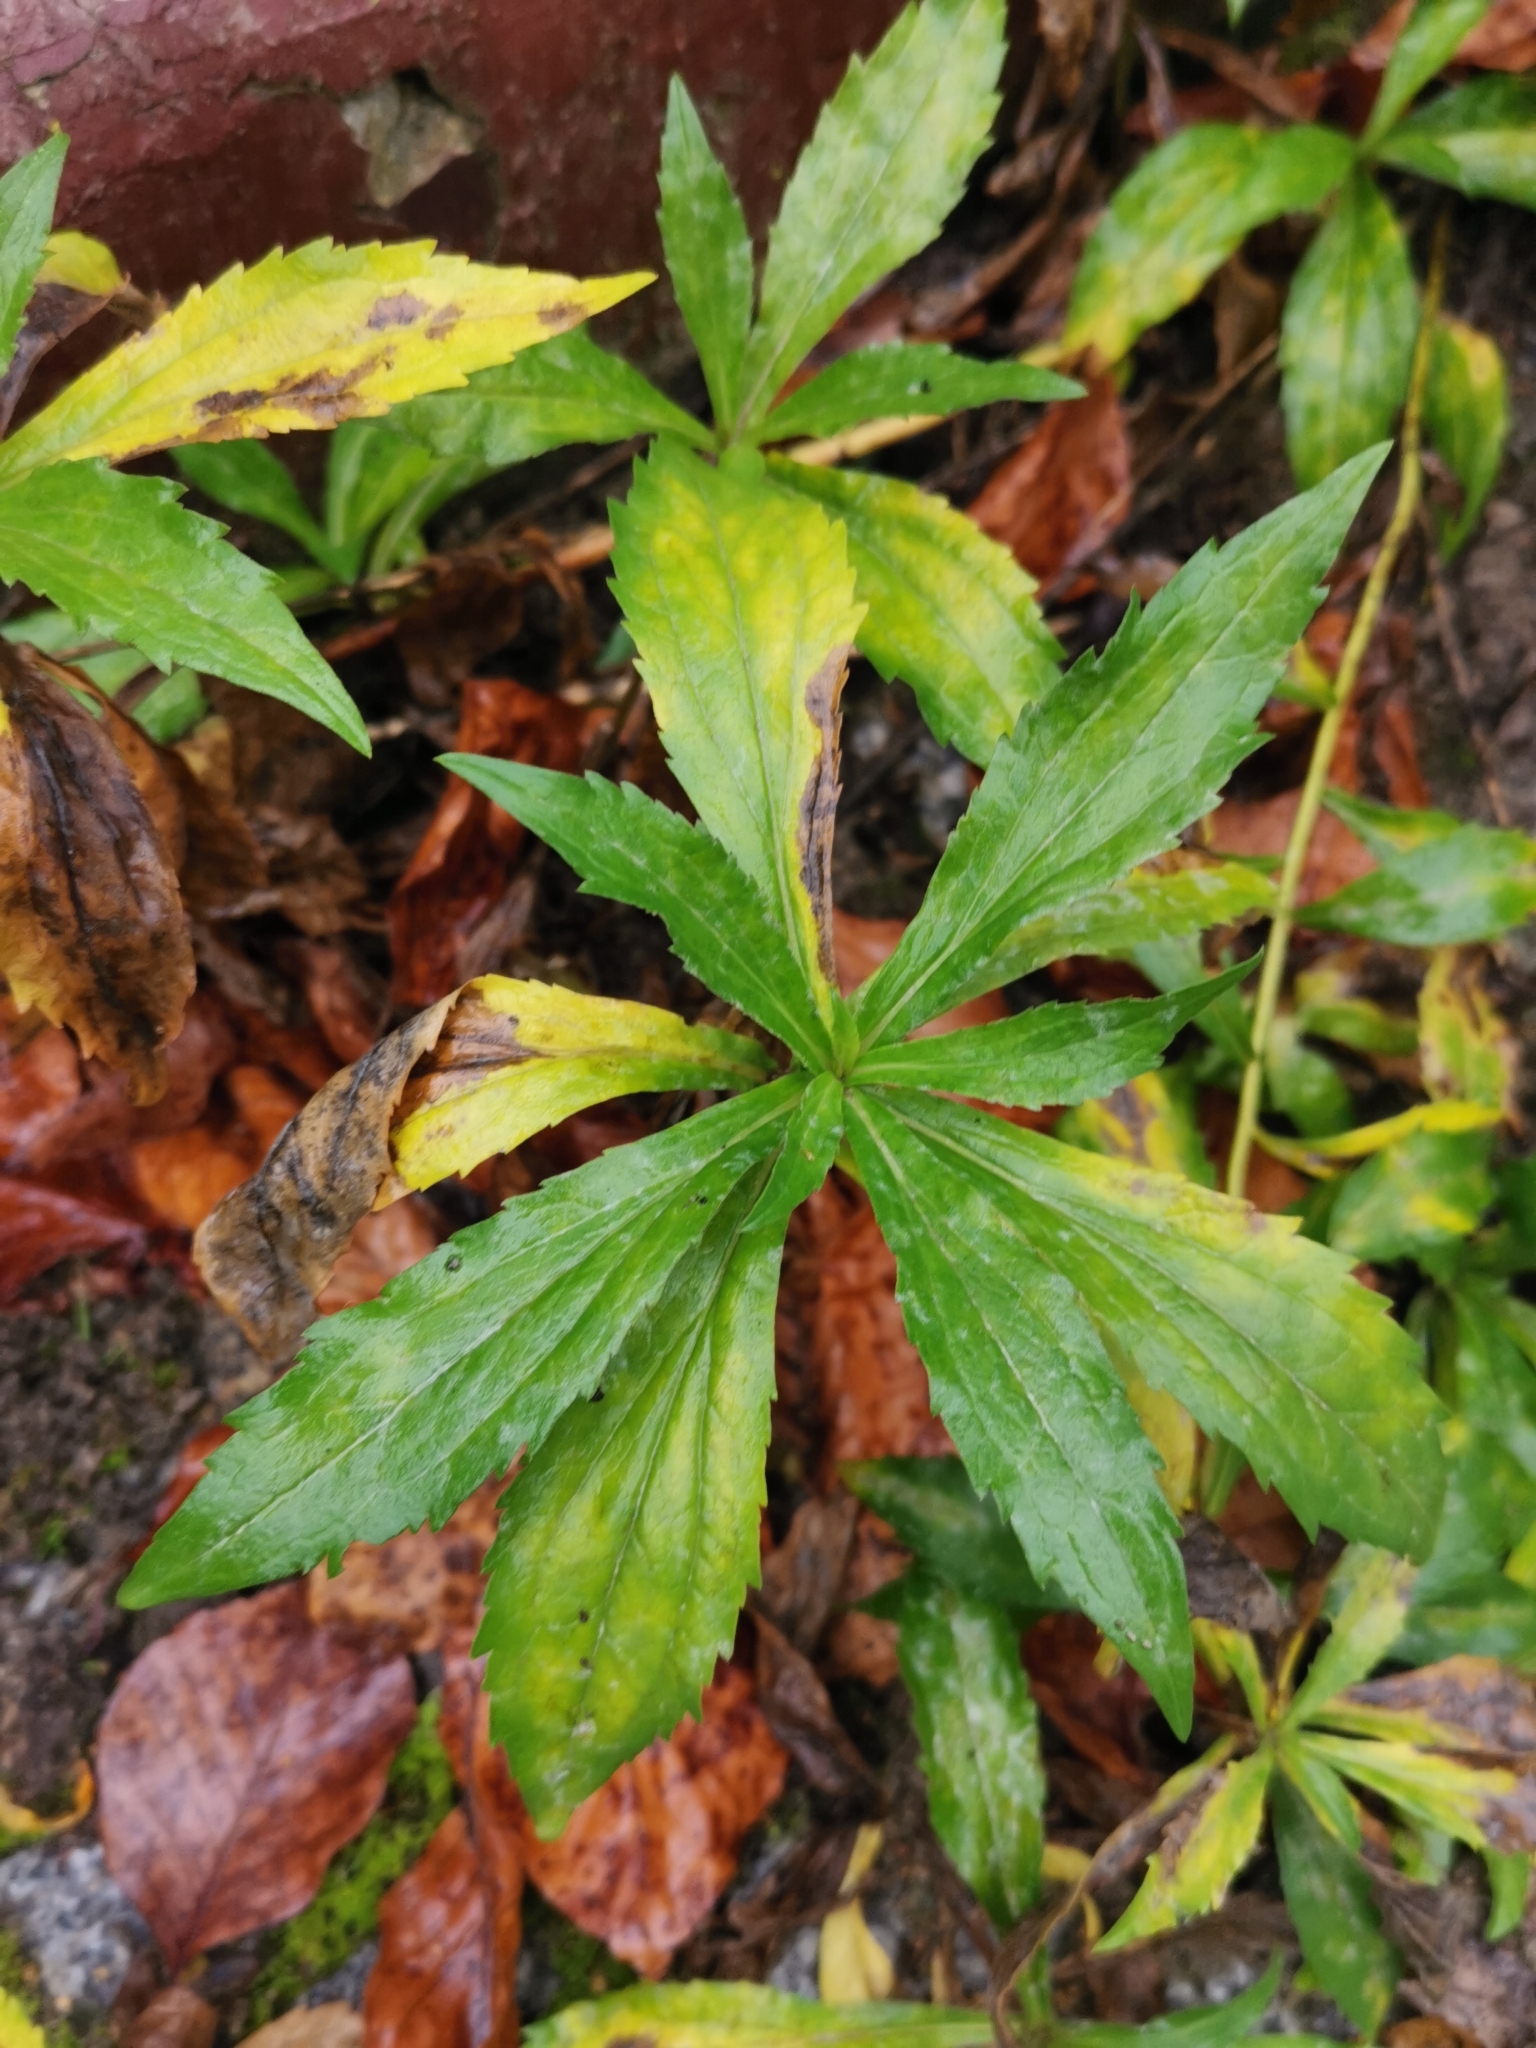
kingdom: Plantae
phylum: Tracheophyta
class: Magnoliopsida
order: Asterales
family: Asteraceae
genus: Solidago
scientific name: Solidago canadensis
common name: Canada goldenrod
